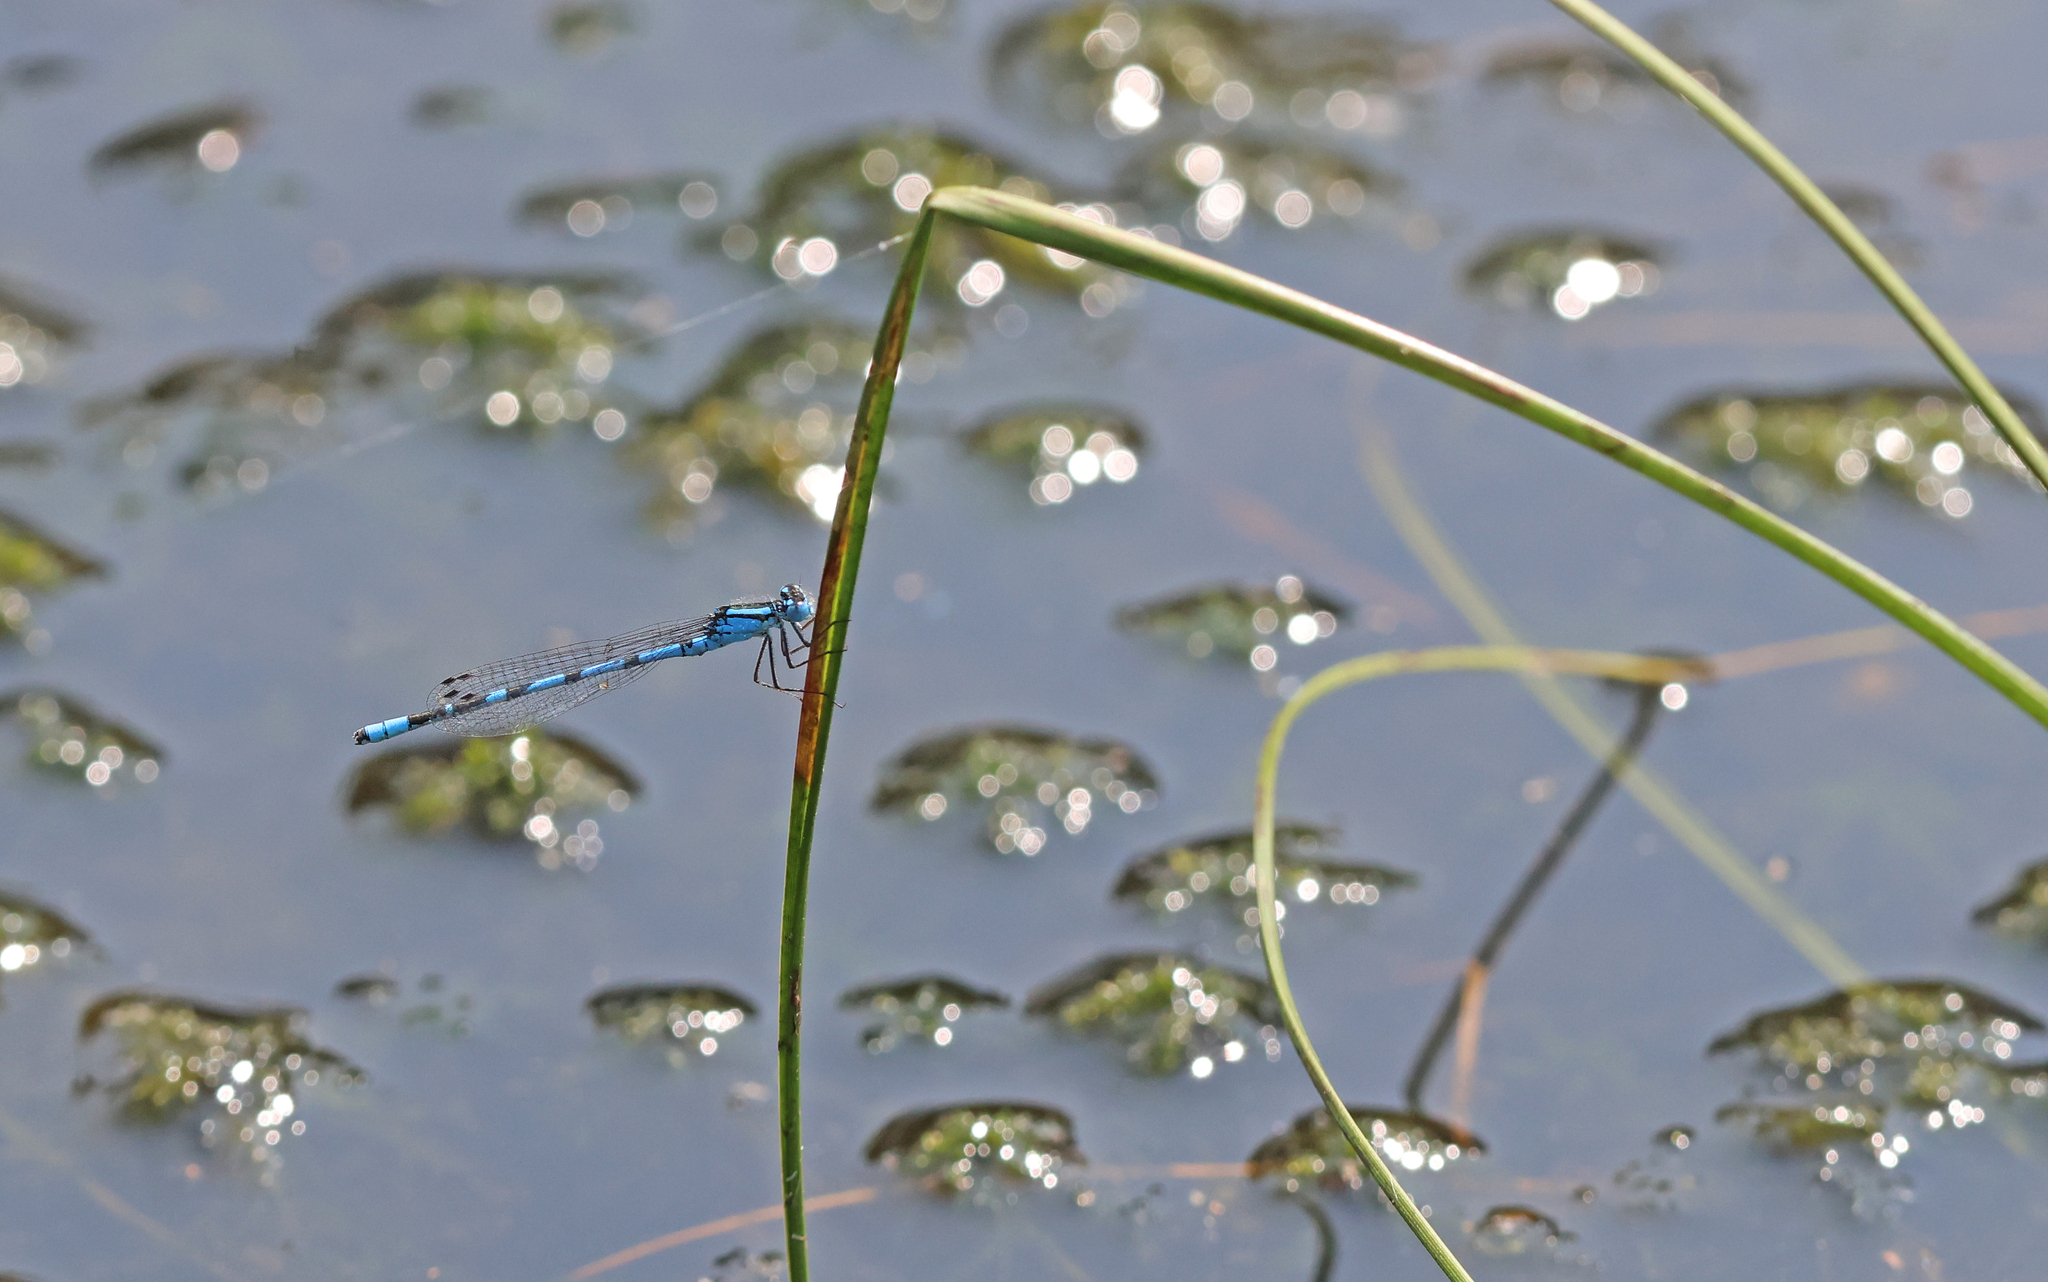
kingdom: Animalia
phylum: Arthropoda
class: Insecta
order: Odonata
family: Coenagrionidae
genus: Enallagma
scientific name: Enallagma cyathigerum
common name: Common blue damselfly
